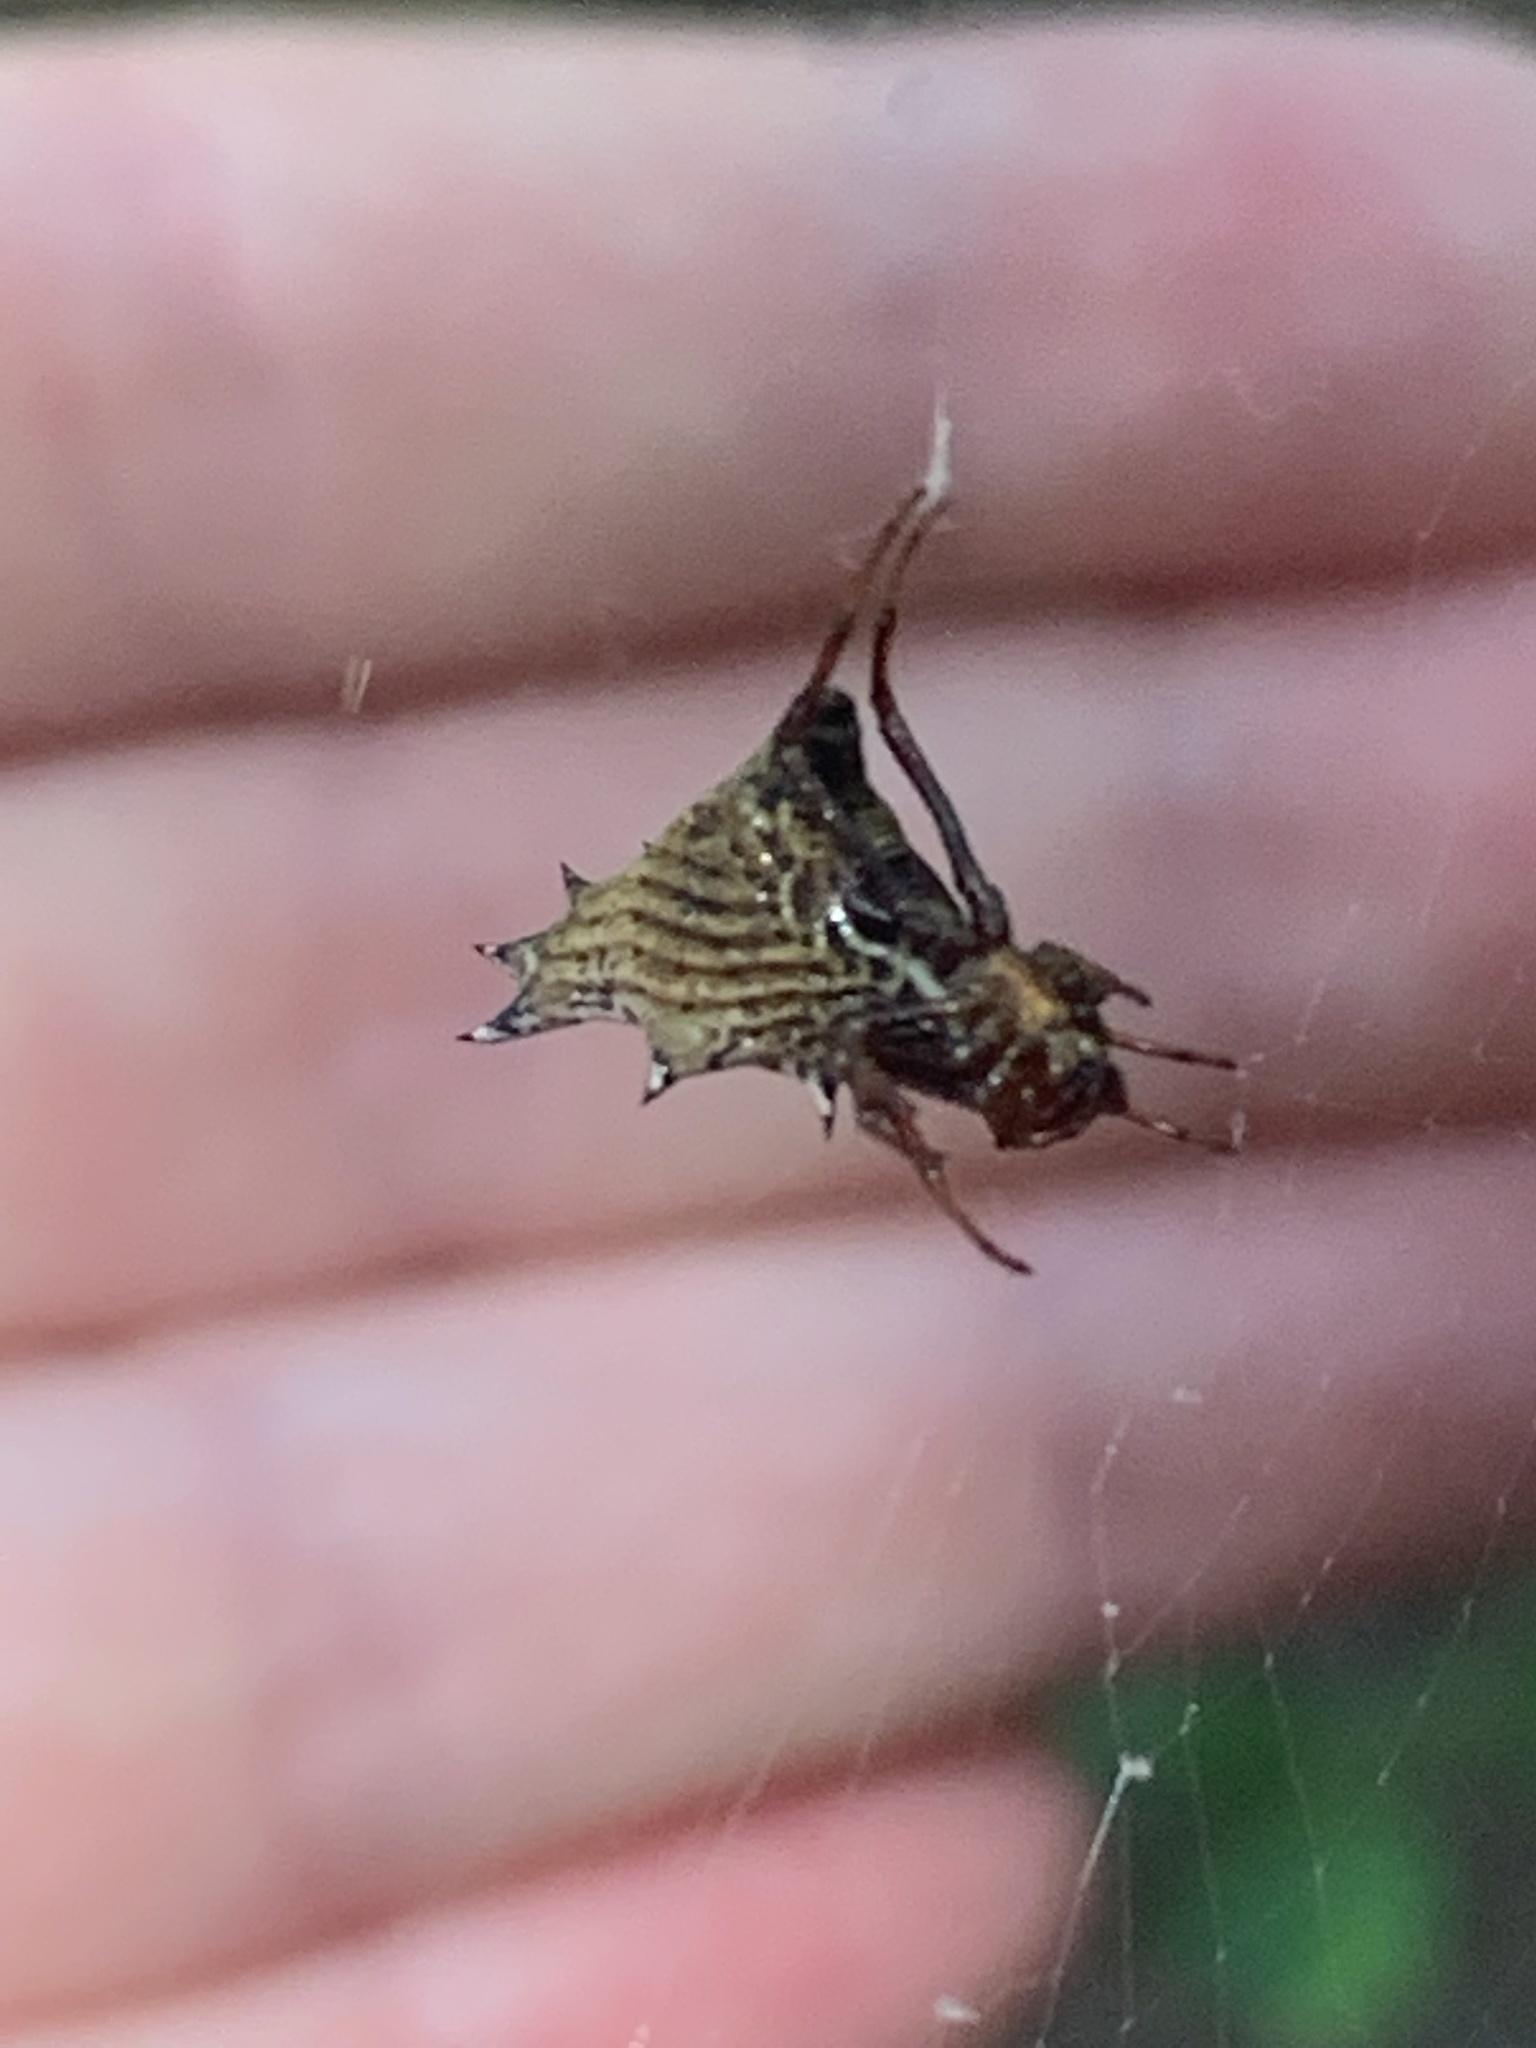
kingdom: Animalia
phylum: Arthropoda
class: Arachnida
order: Araneae
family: Araneidae
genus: Micrathena
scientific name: Micrathena gracilis
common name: Orb weavers
